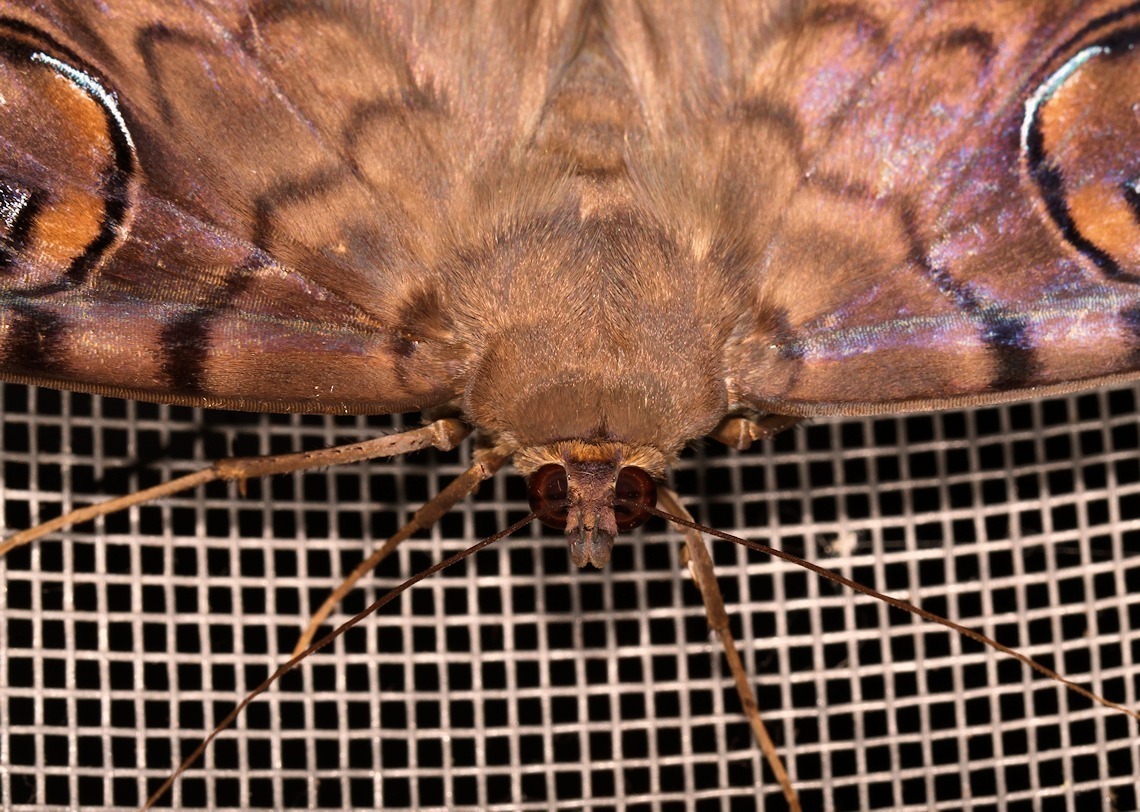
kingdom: Animalia
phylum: Arthropoda
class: Insecta
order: Lepidoptera
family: Erebidae
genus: Erebus
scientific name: Erebus walkeri
